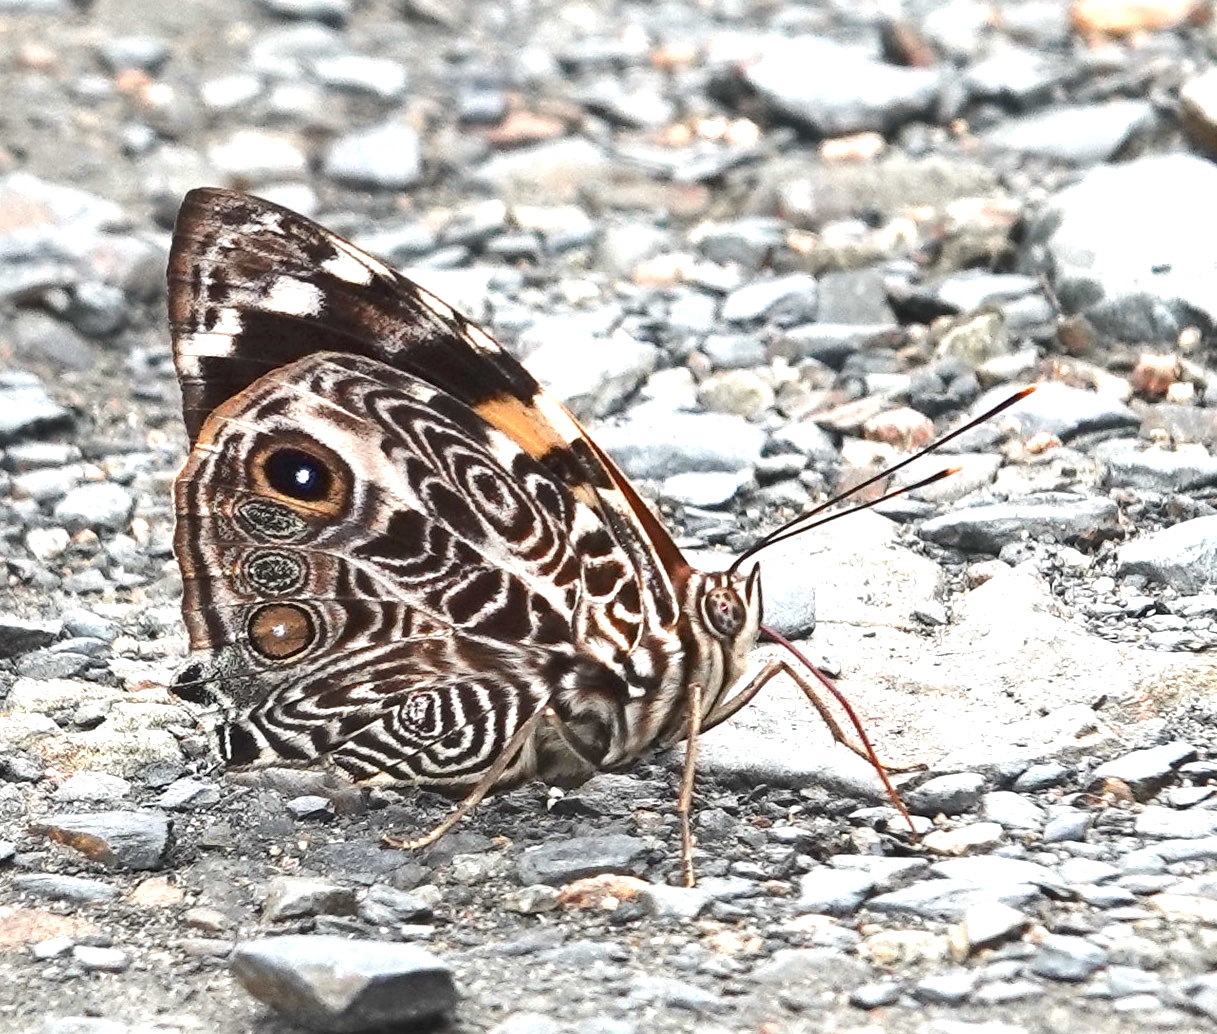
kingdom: Animalia
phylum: Arthropoda
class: Insecta
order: Lepidoptera
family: Nymphalidae
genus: Smyrna
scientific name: Smyrna blomfildia
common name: Blomfild's beauty
